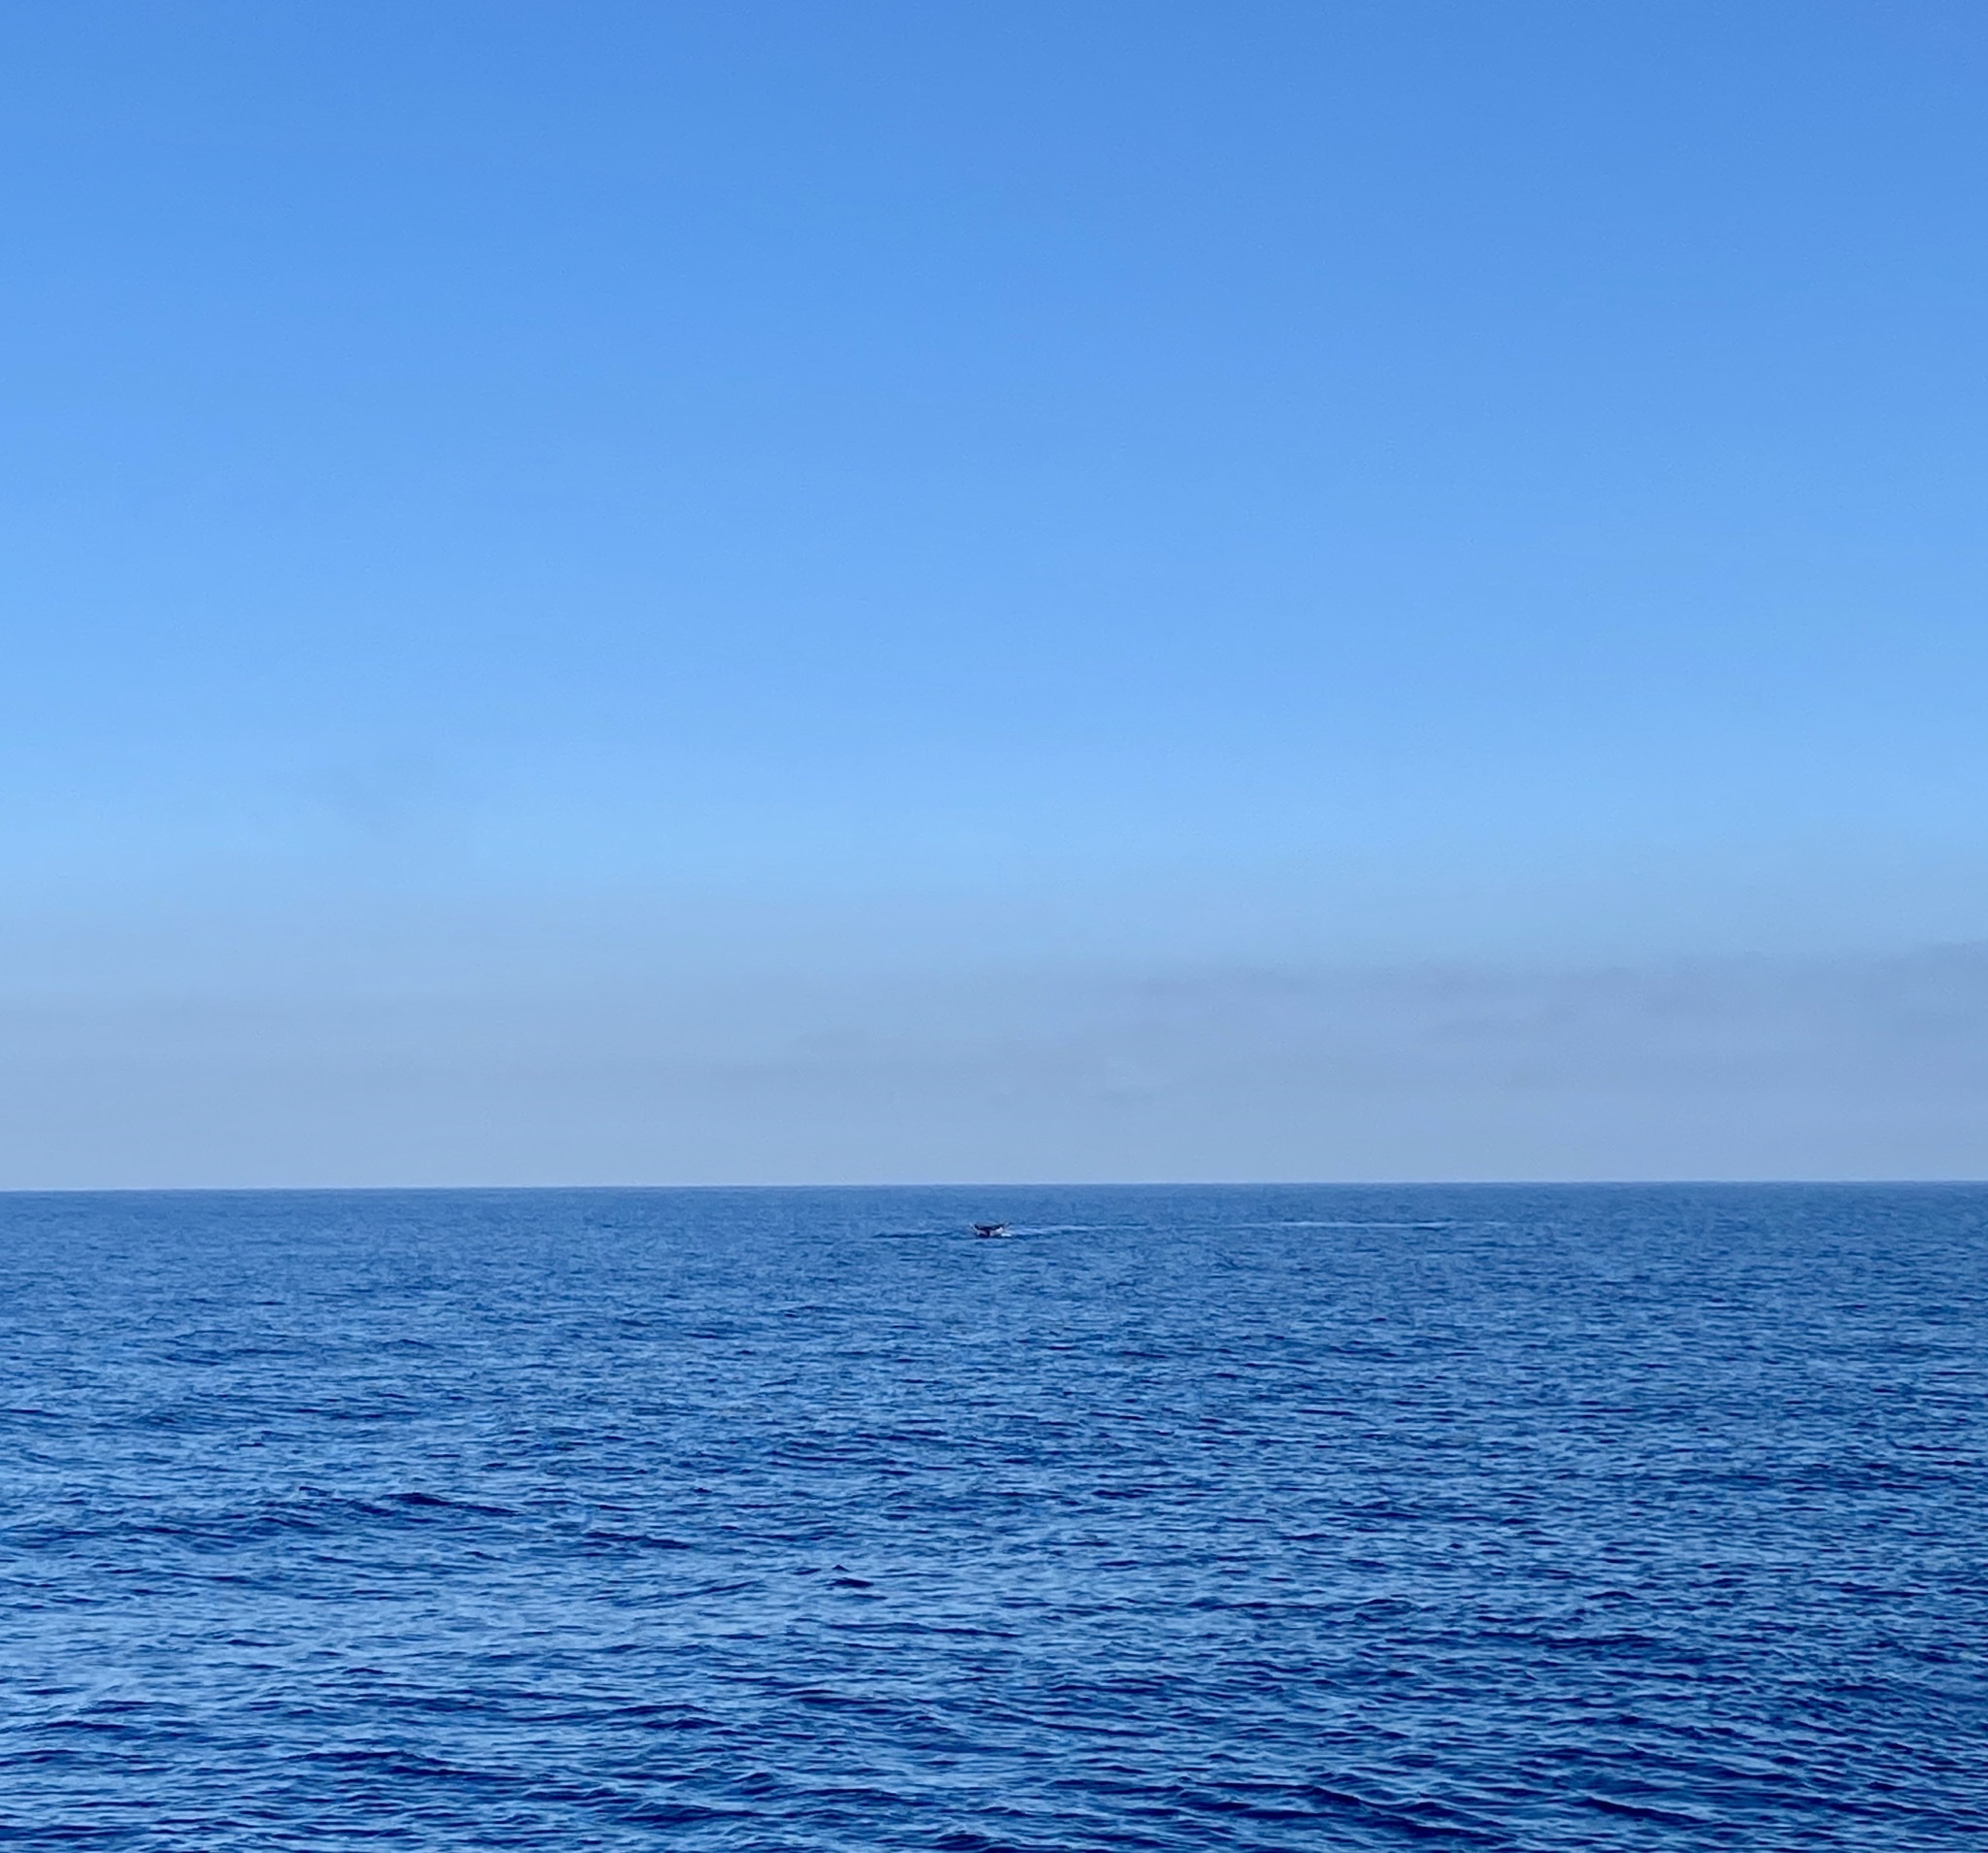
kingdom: Animalia
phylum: Chordata
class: Mammalia
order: Cetacea
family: Eschrichtiidae
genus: Eschrichtius
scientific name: Eschrichtius robustus
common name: Gray whale
